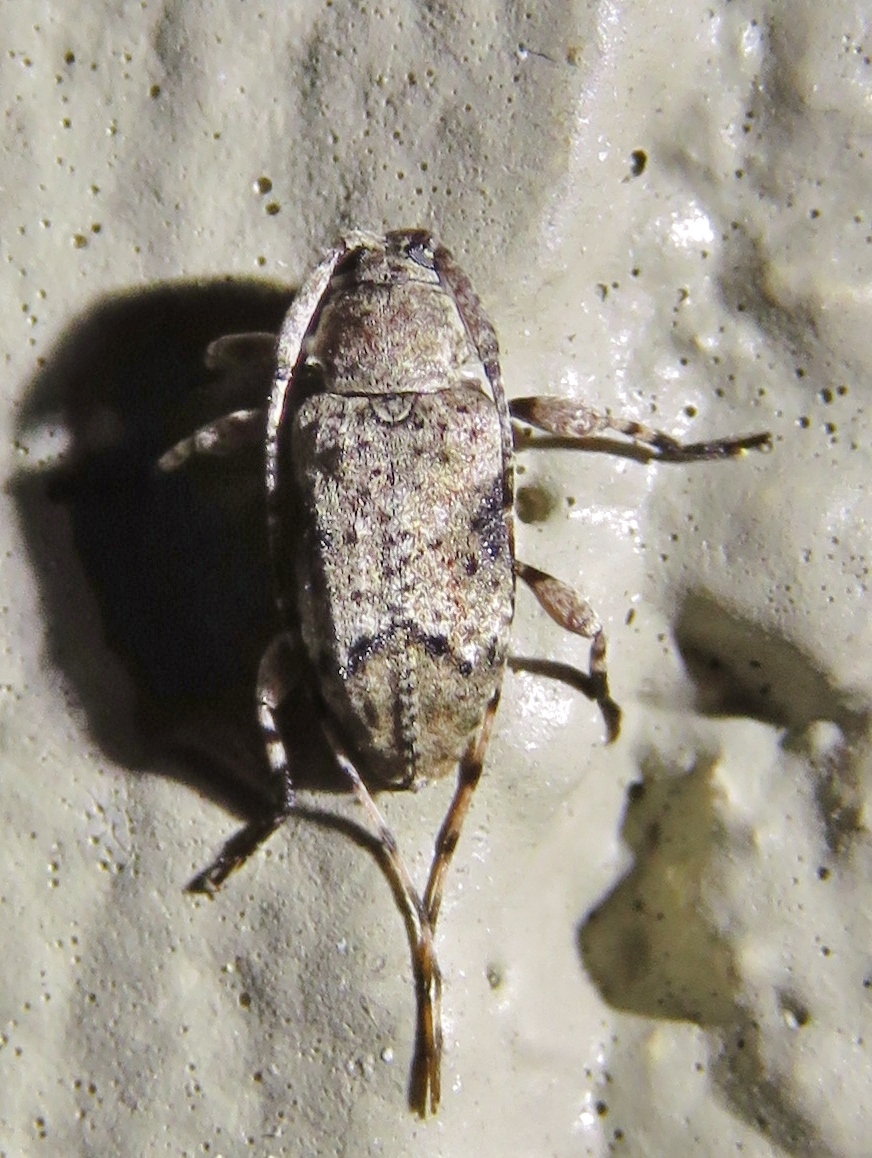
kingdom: Animalia
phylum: Arthropoda
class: Insecta
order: Coleoptera
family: Cerambycidae
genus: Sternidius
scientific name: Sternidius mimeticus
